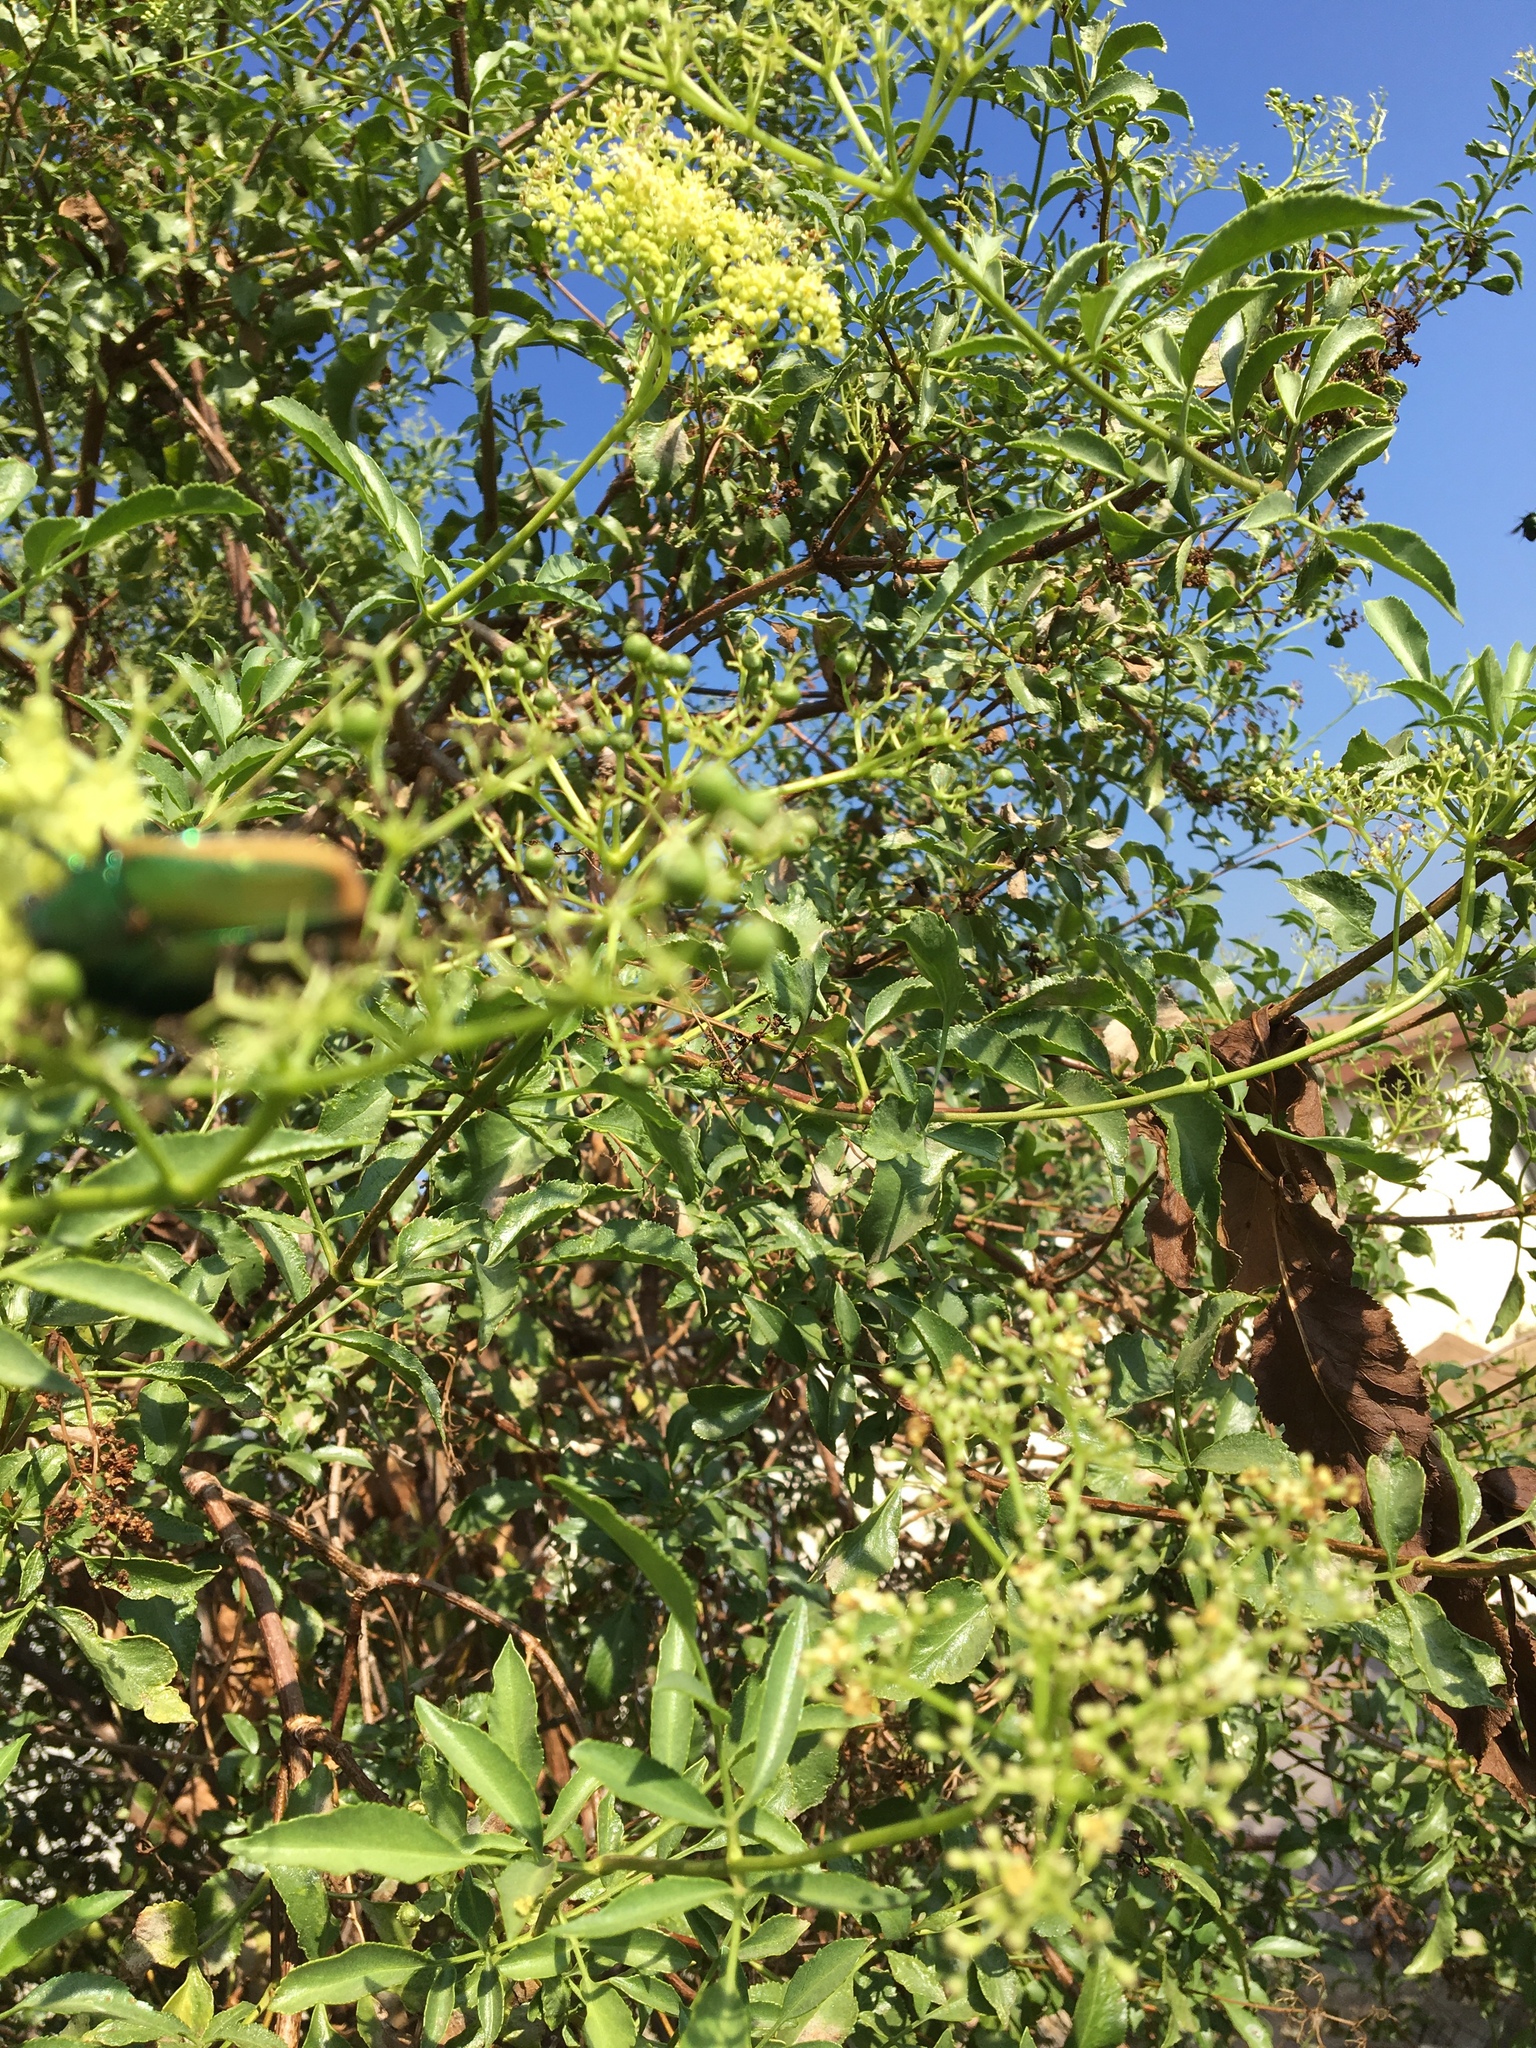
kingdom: Plantae
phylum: Tracheophyta
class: Magnoliopsida
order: Dipsacales
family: Viburnaceae
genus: Sambucus
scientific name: Sambucus cerulea
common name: Blue elder
